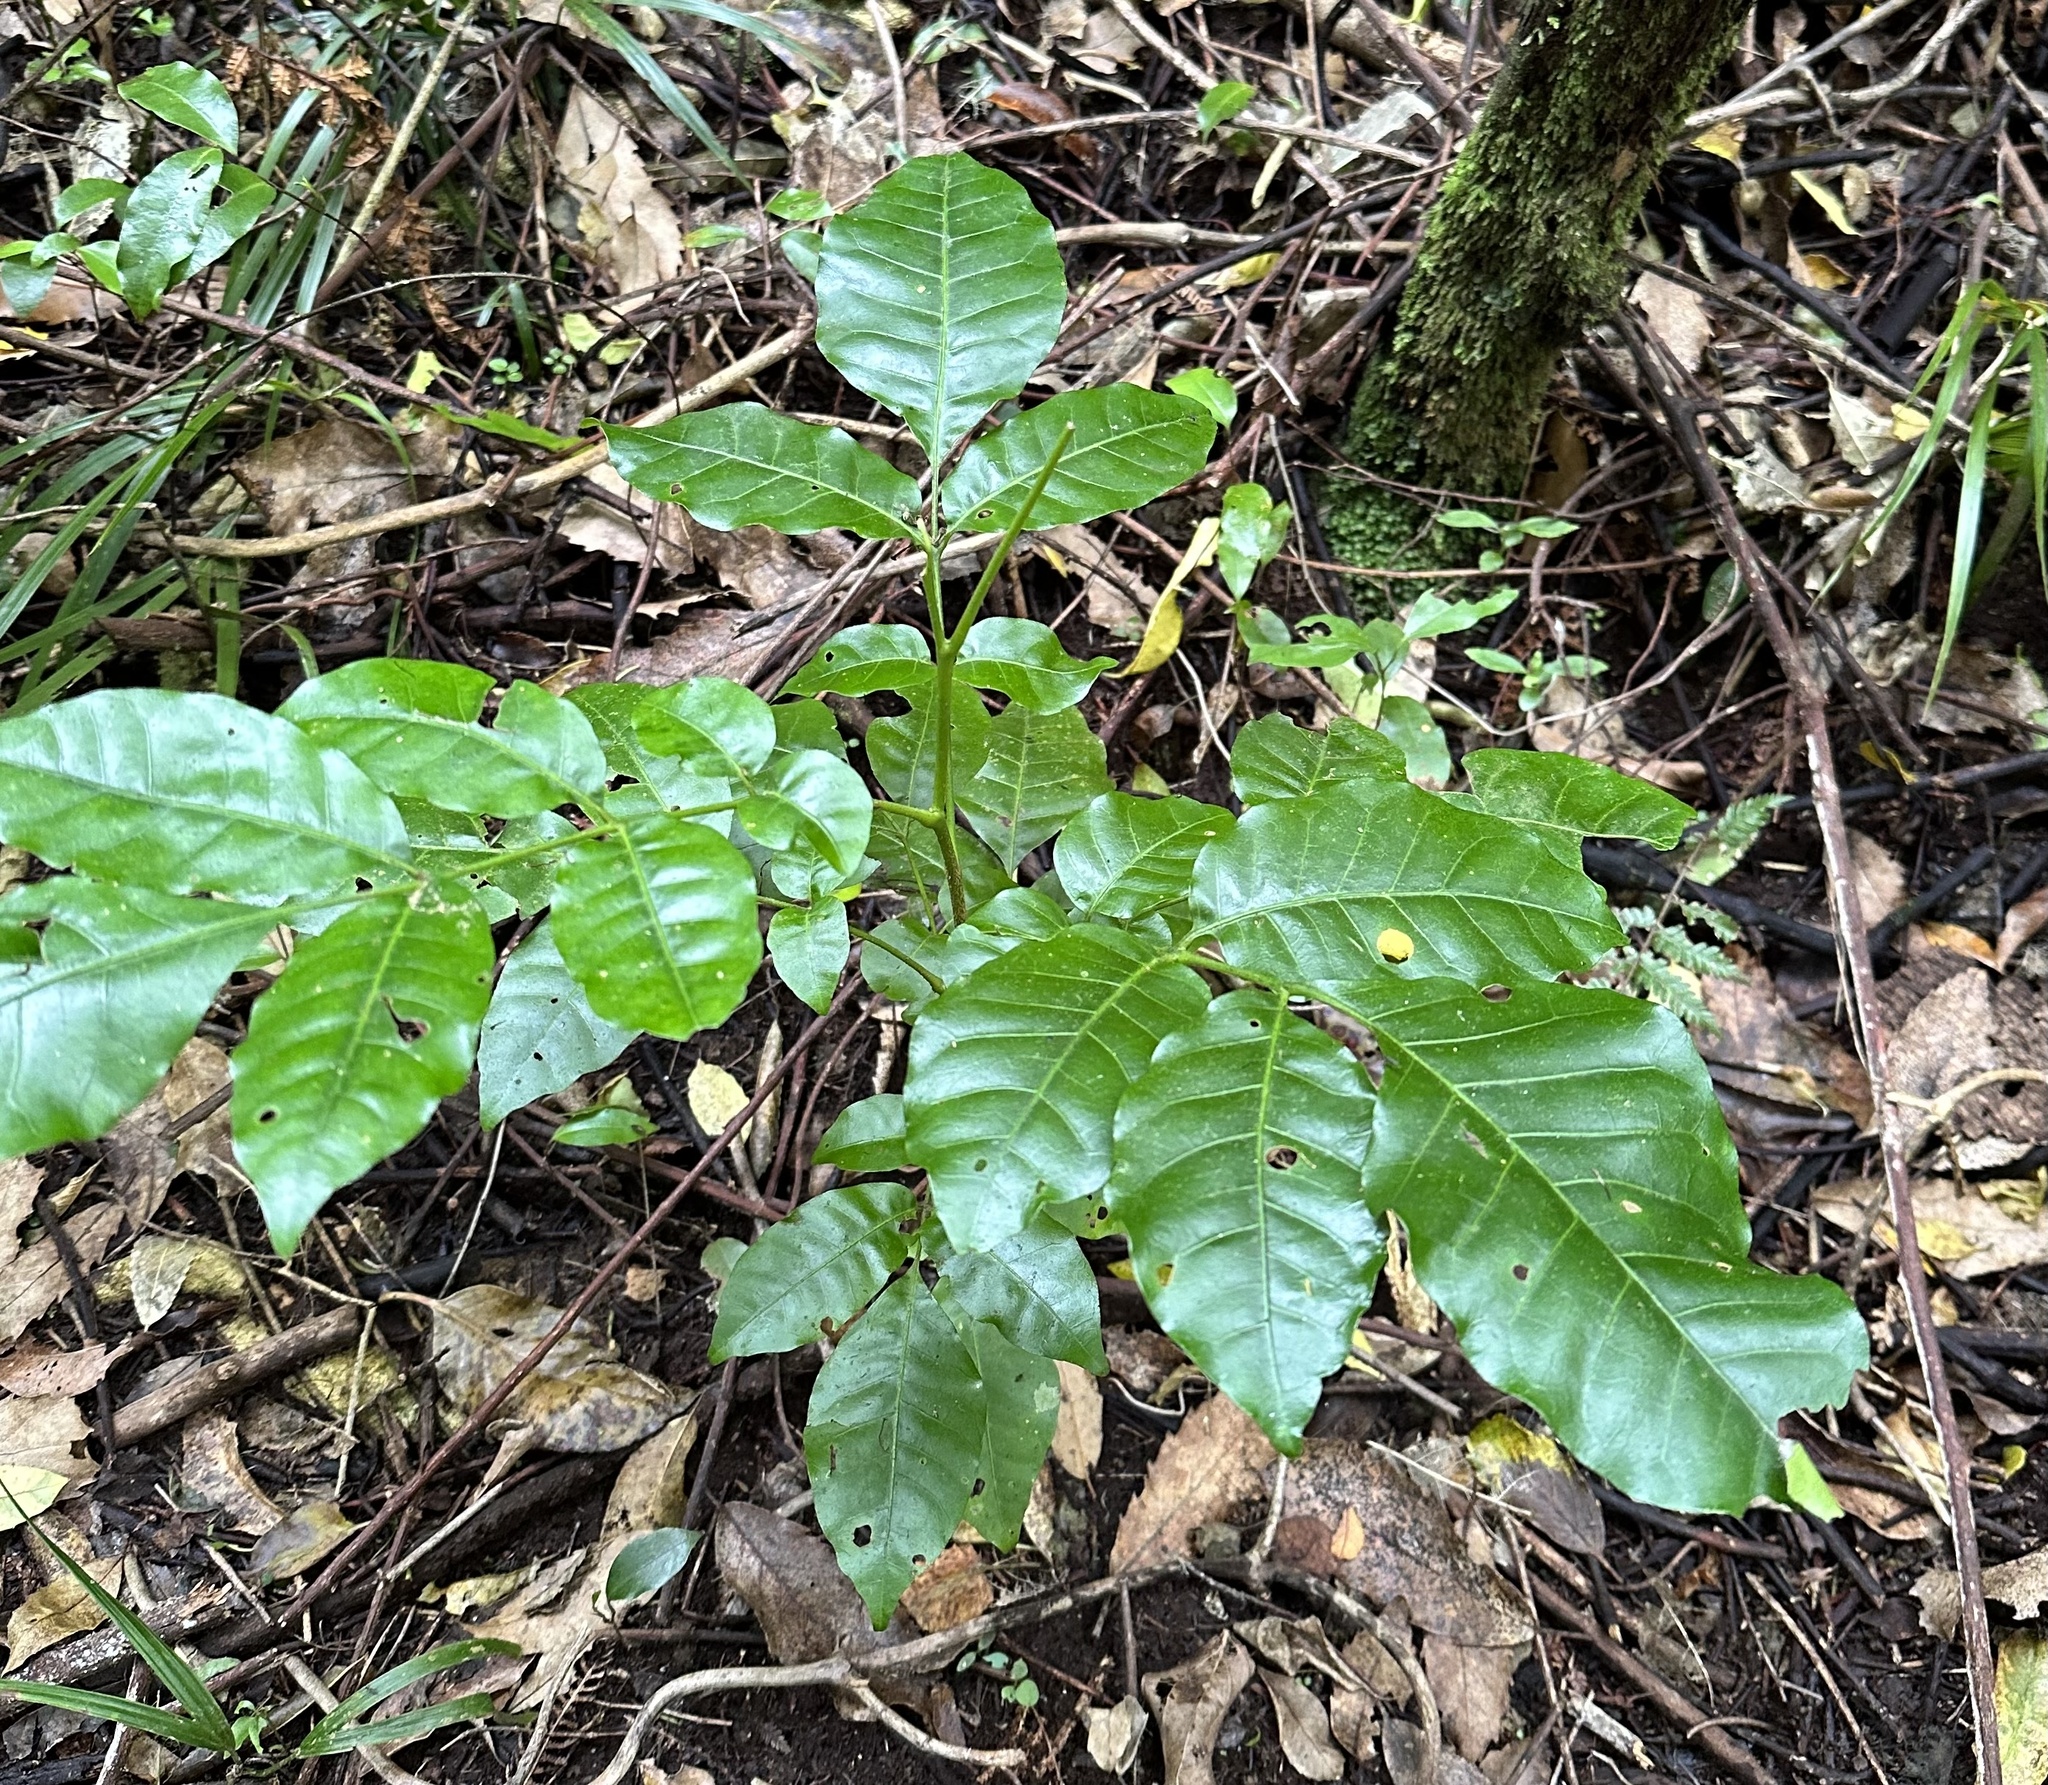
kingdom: Plantae
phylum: Tracheophyta
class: Magnoliopsida
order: Sapindales
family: Meliaceae
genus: Didymocheton
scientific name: Didymocheton spectabilis
